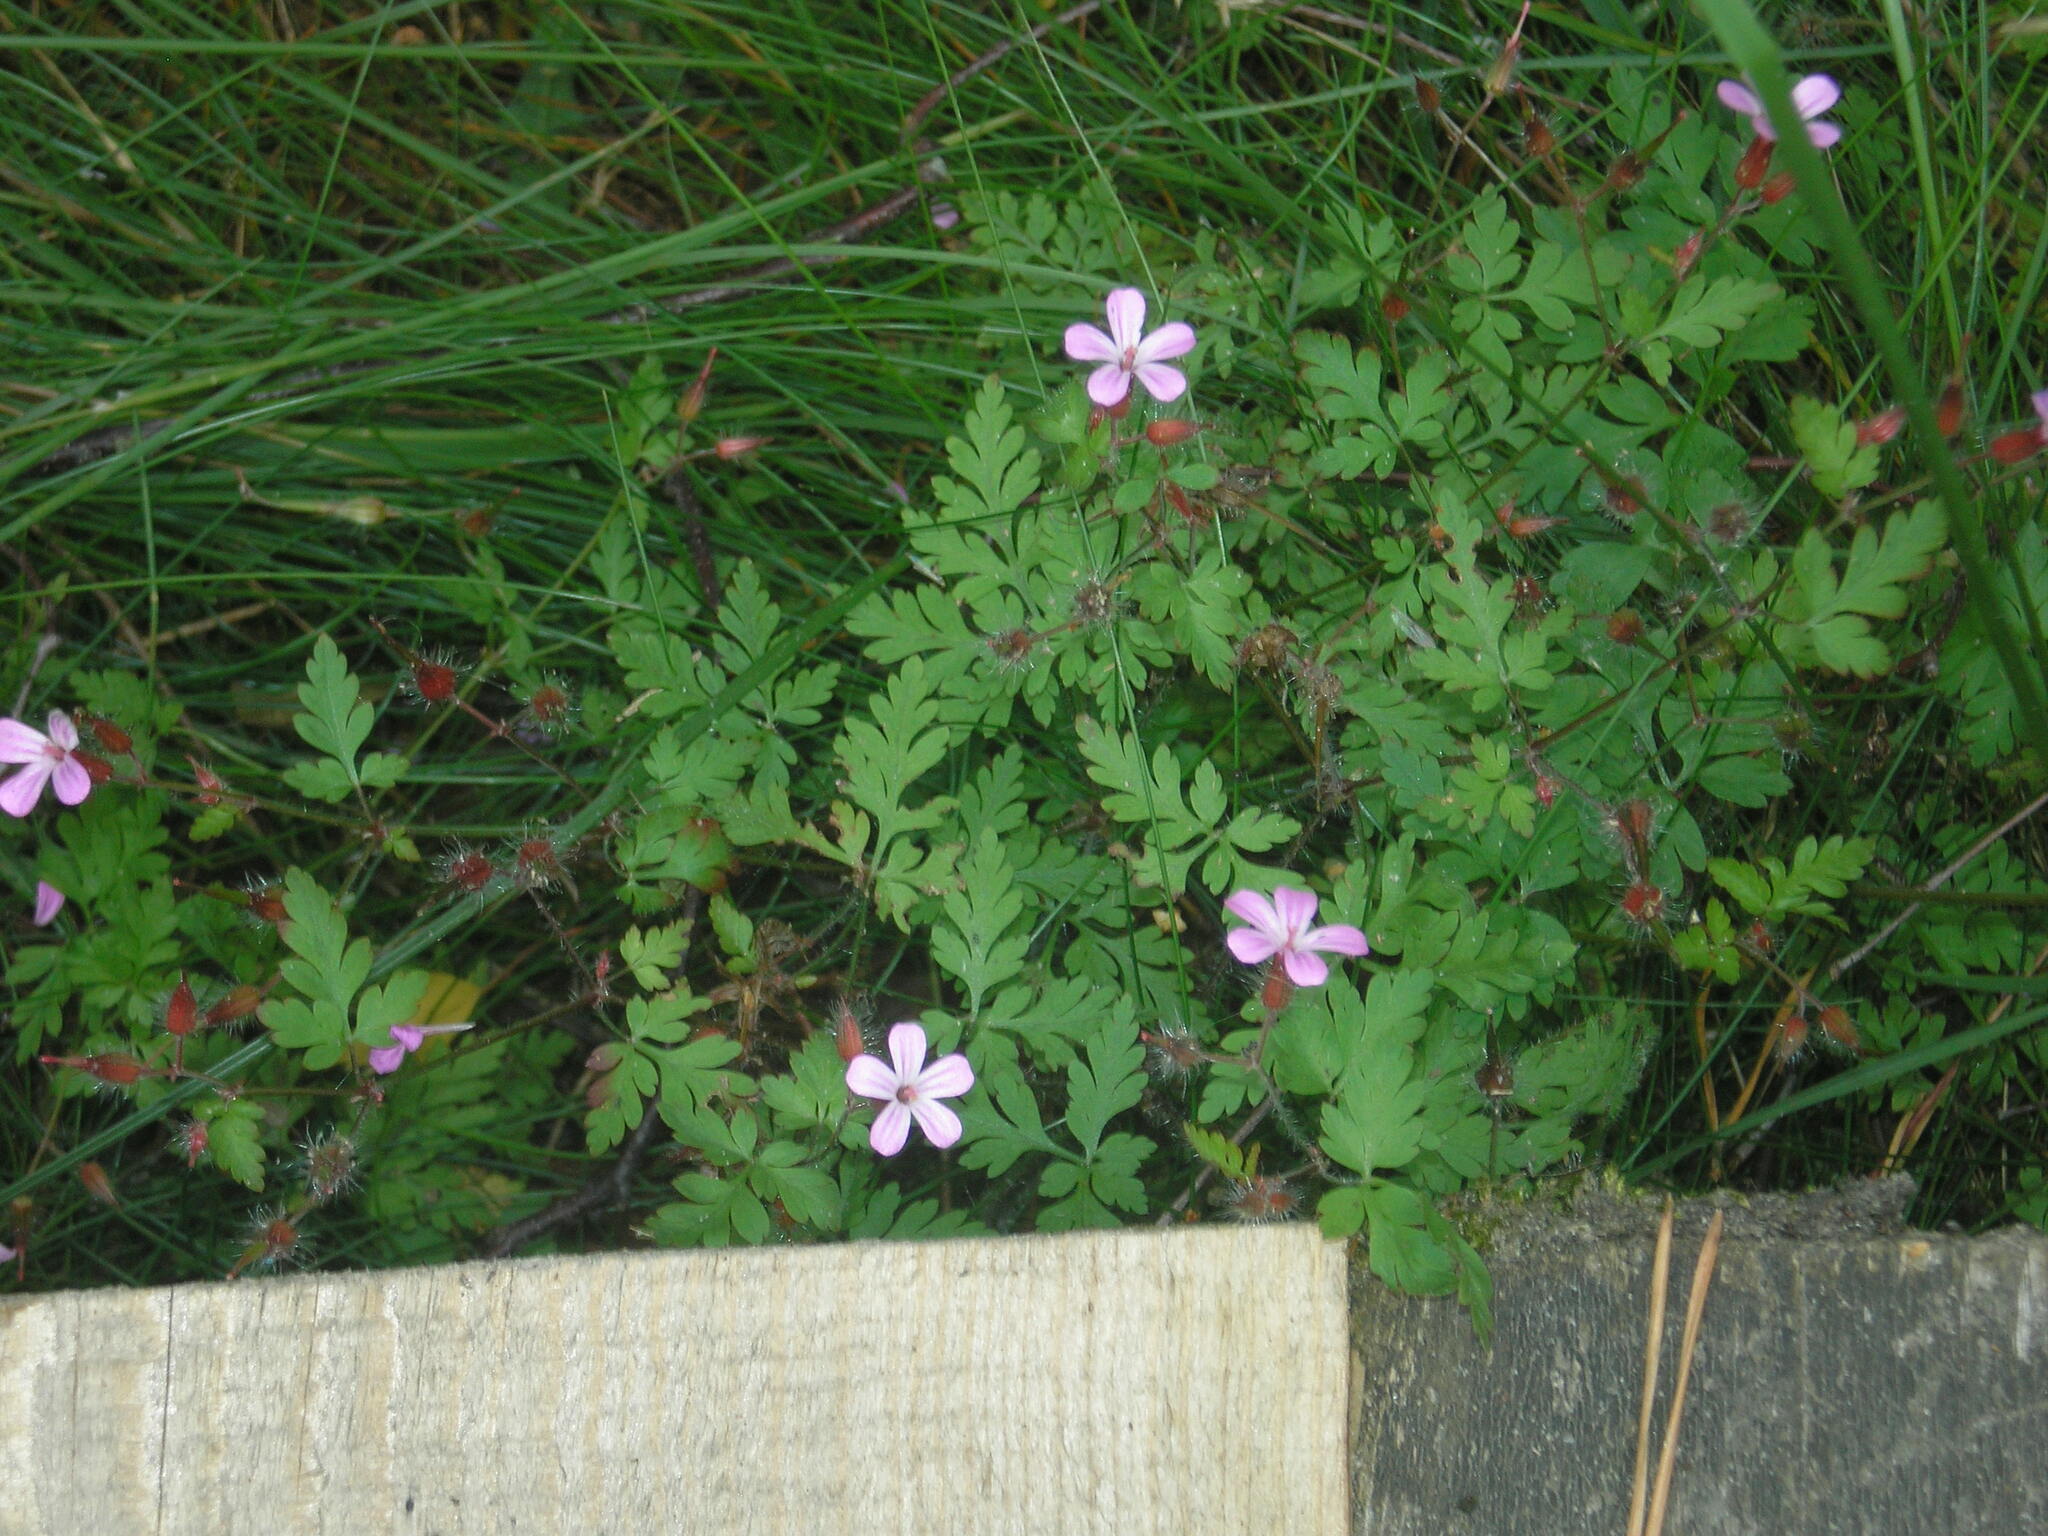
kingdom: Plantae
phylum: Tracheophyta
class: Magnoliopsida
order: Geraniales
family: Geraniaceae
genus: Geranium
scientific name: Geranium robertianum
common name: Herb-robert
